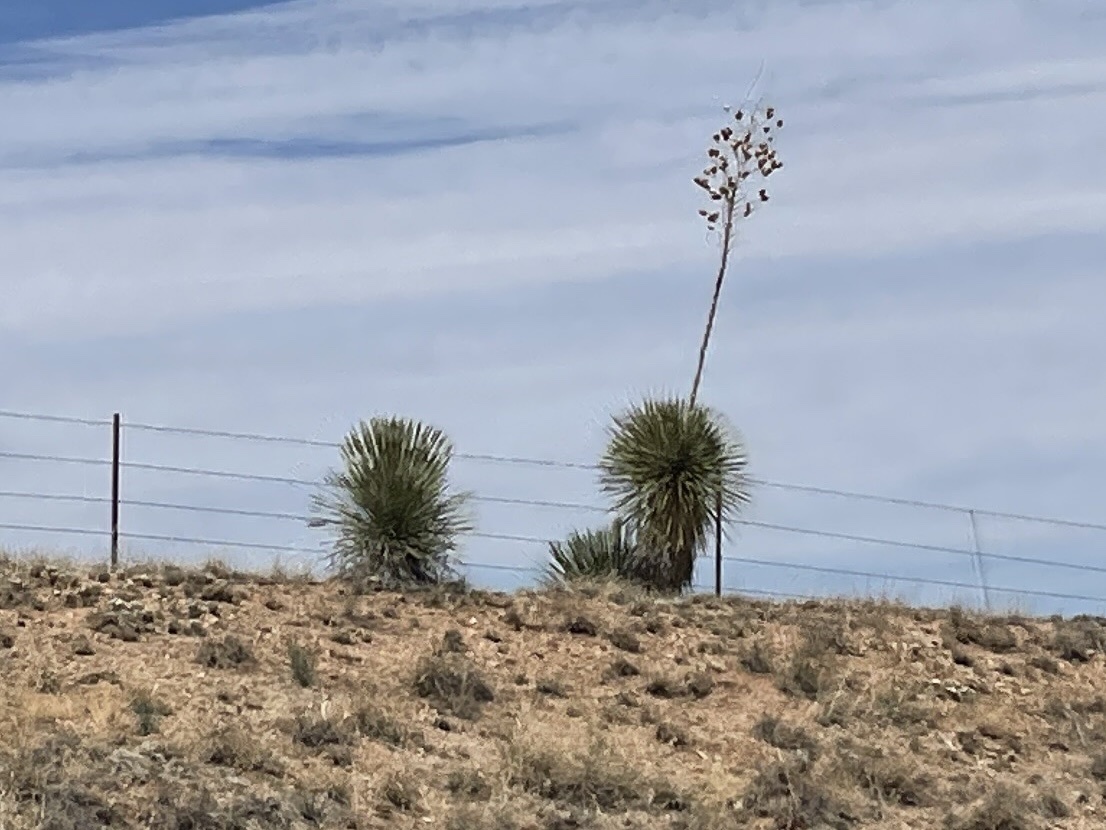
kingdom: Plantae
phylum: Tracheophyta
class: Liliopsida
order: Asparagales
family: Asparagaceae
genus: Yucca
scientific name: Yucca elata
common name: Palmella
